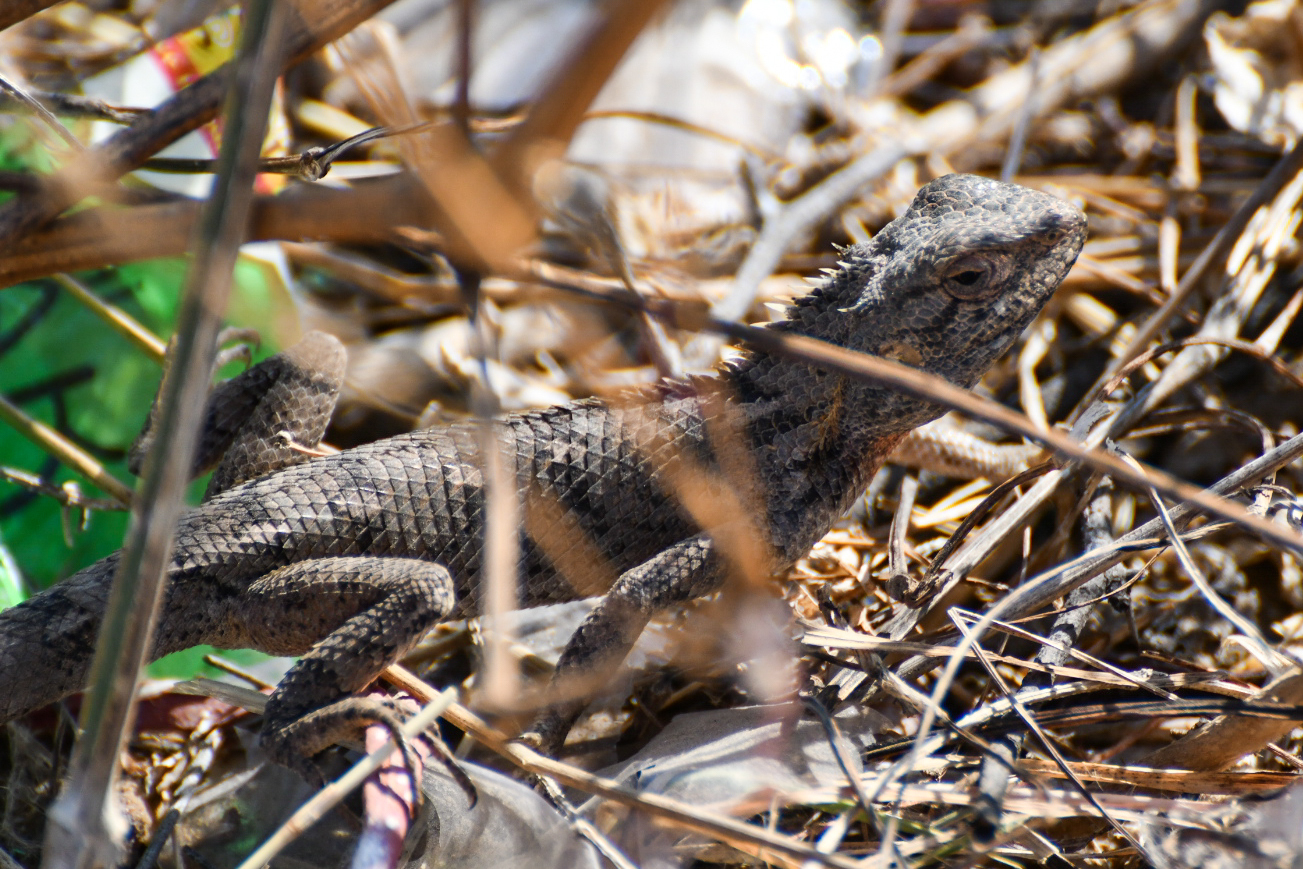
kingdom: Animalia
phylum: Chordata
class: Squamata
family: Agamidae
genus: Calotes
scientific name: Calotes versicolor
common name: Oriental garden lizard
